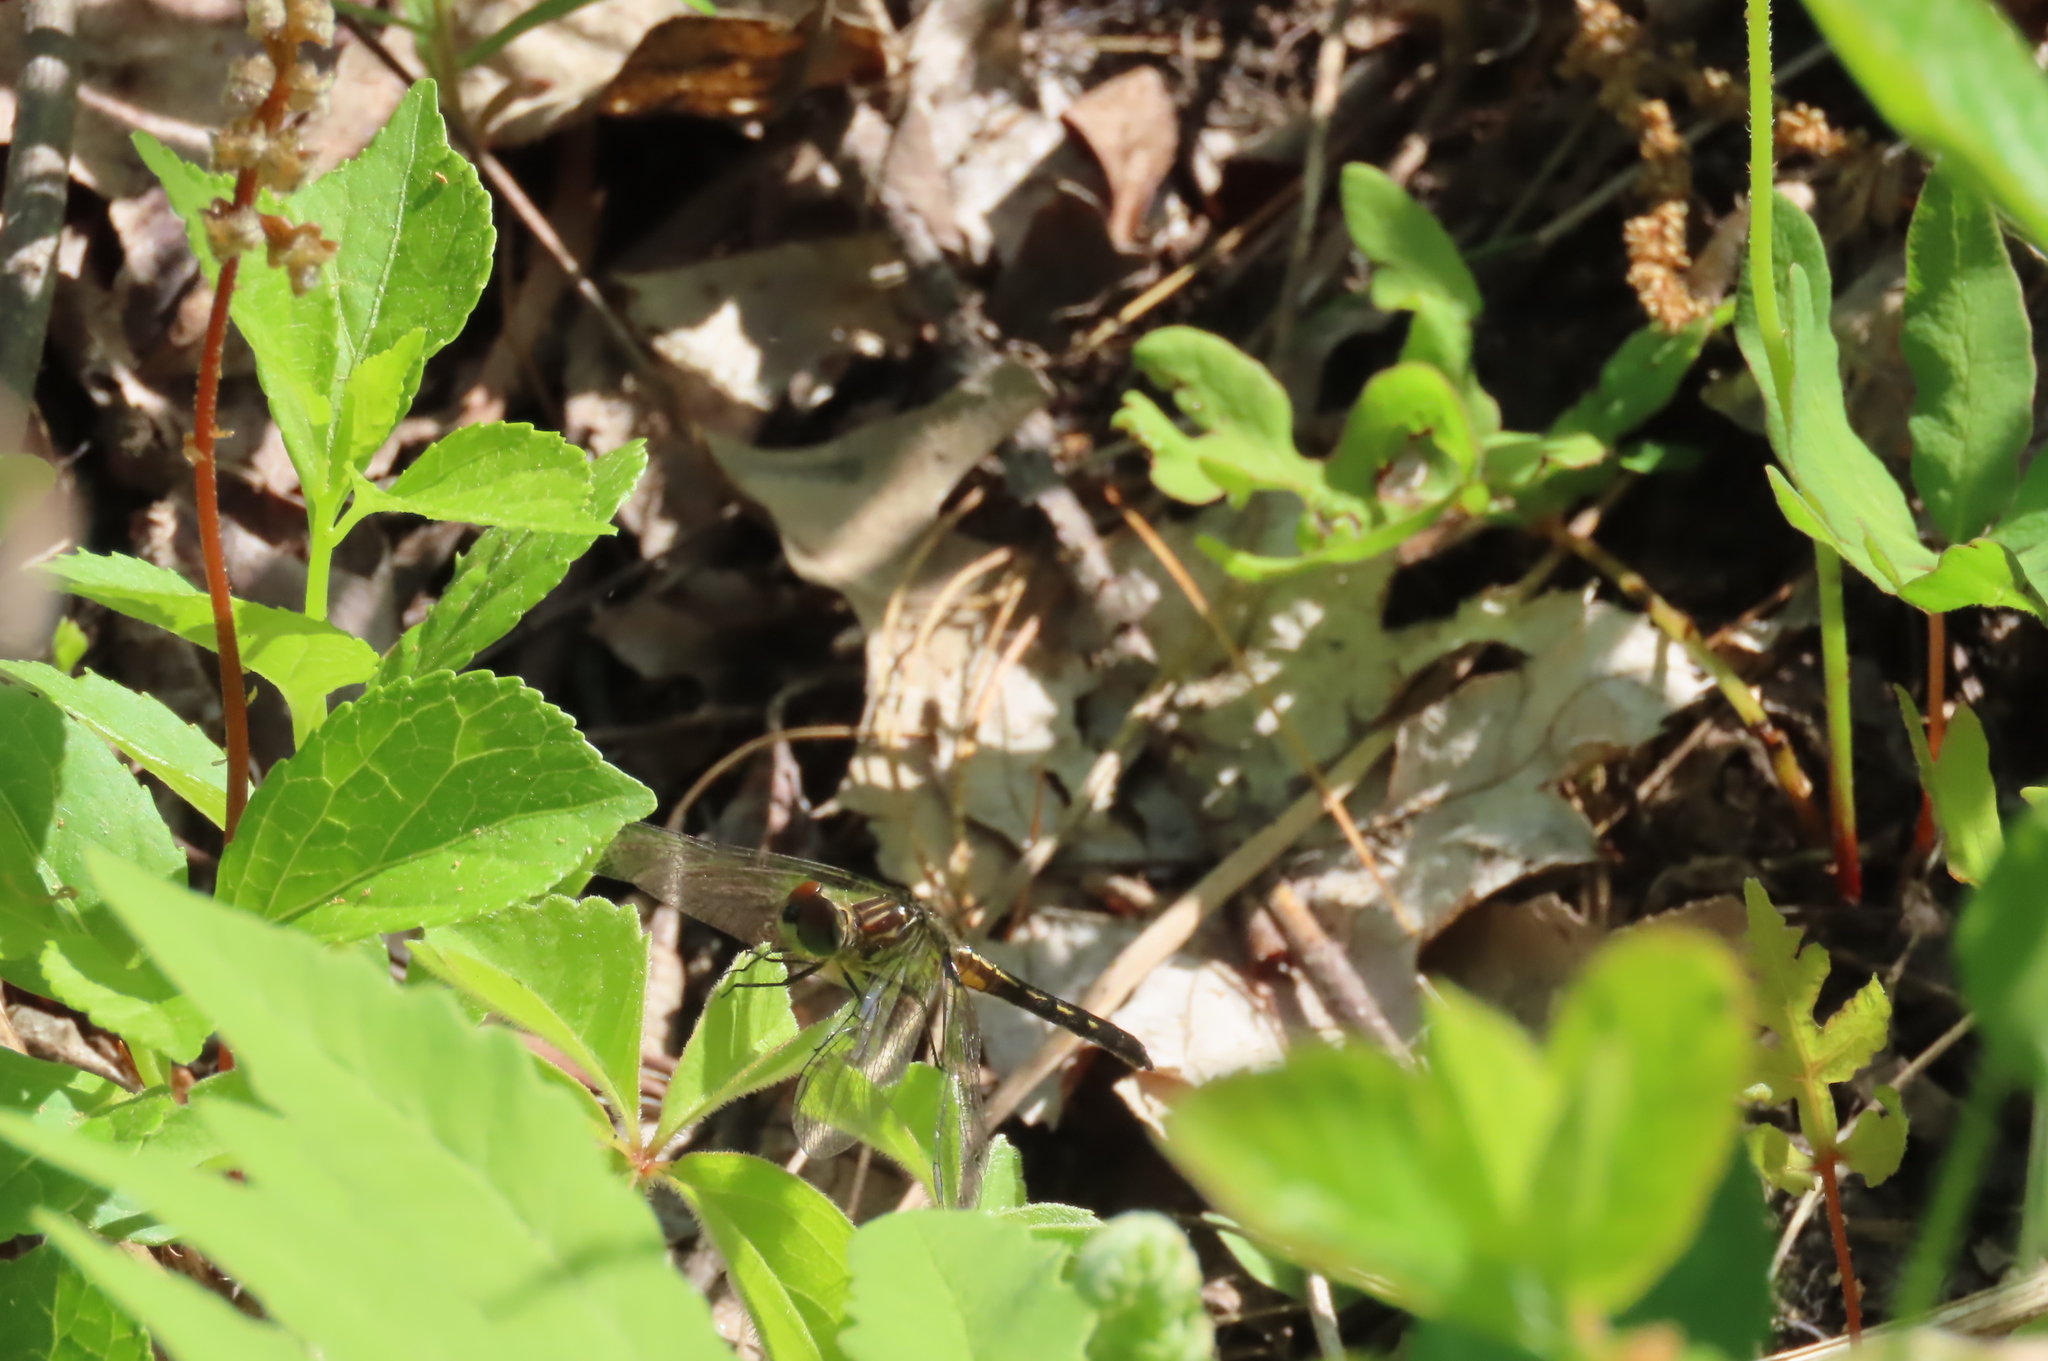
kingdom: Animalia
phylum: Arthropoda
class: Insecta
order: Odonata
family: Libellulidae
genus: Pachydiplax
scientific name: Pachydiplax longipennis
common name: Blue dasher
